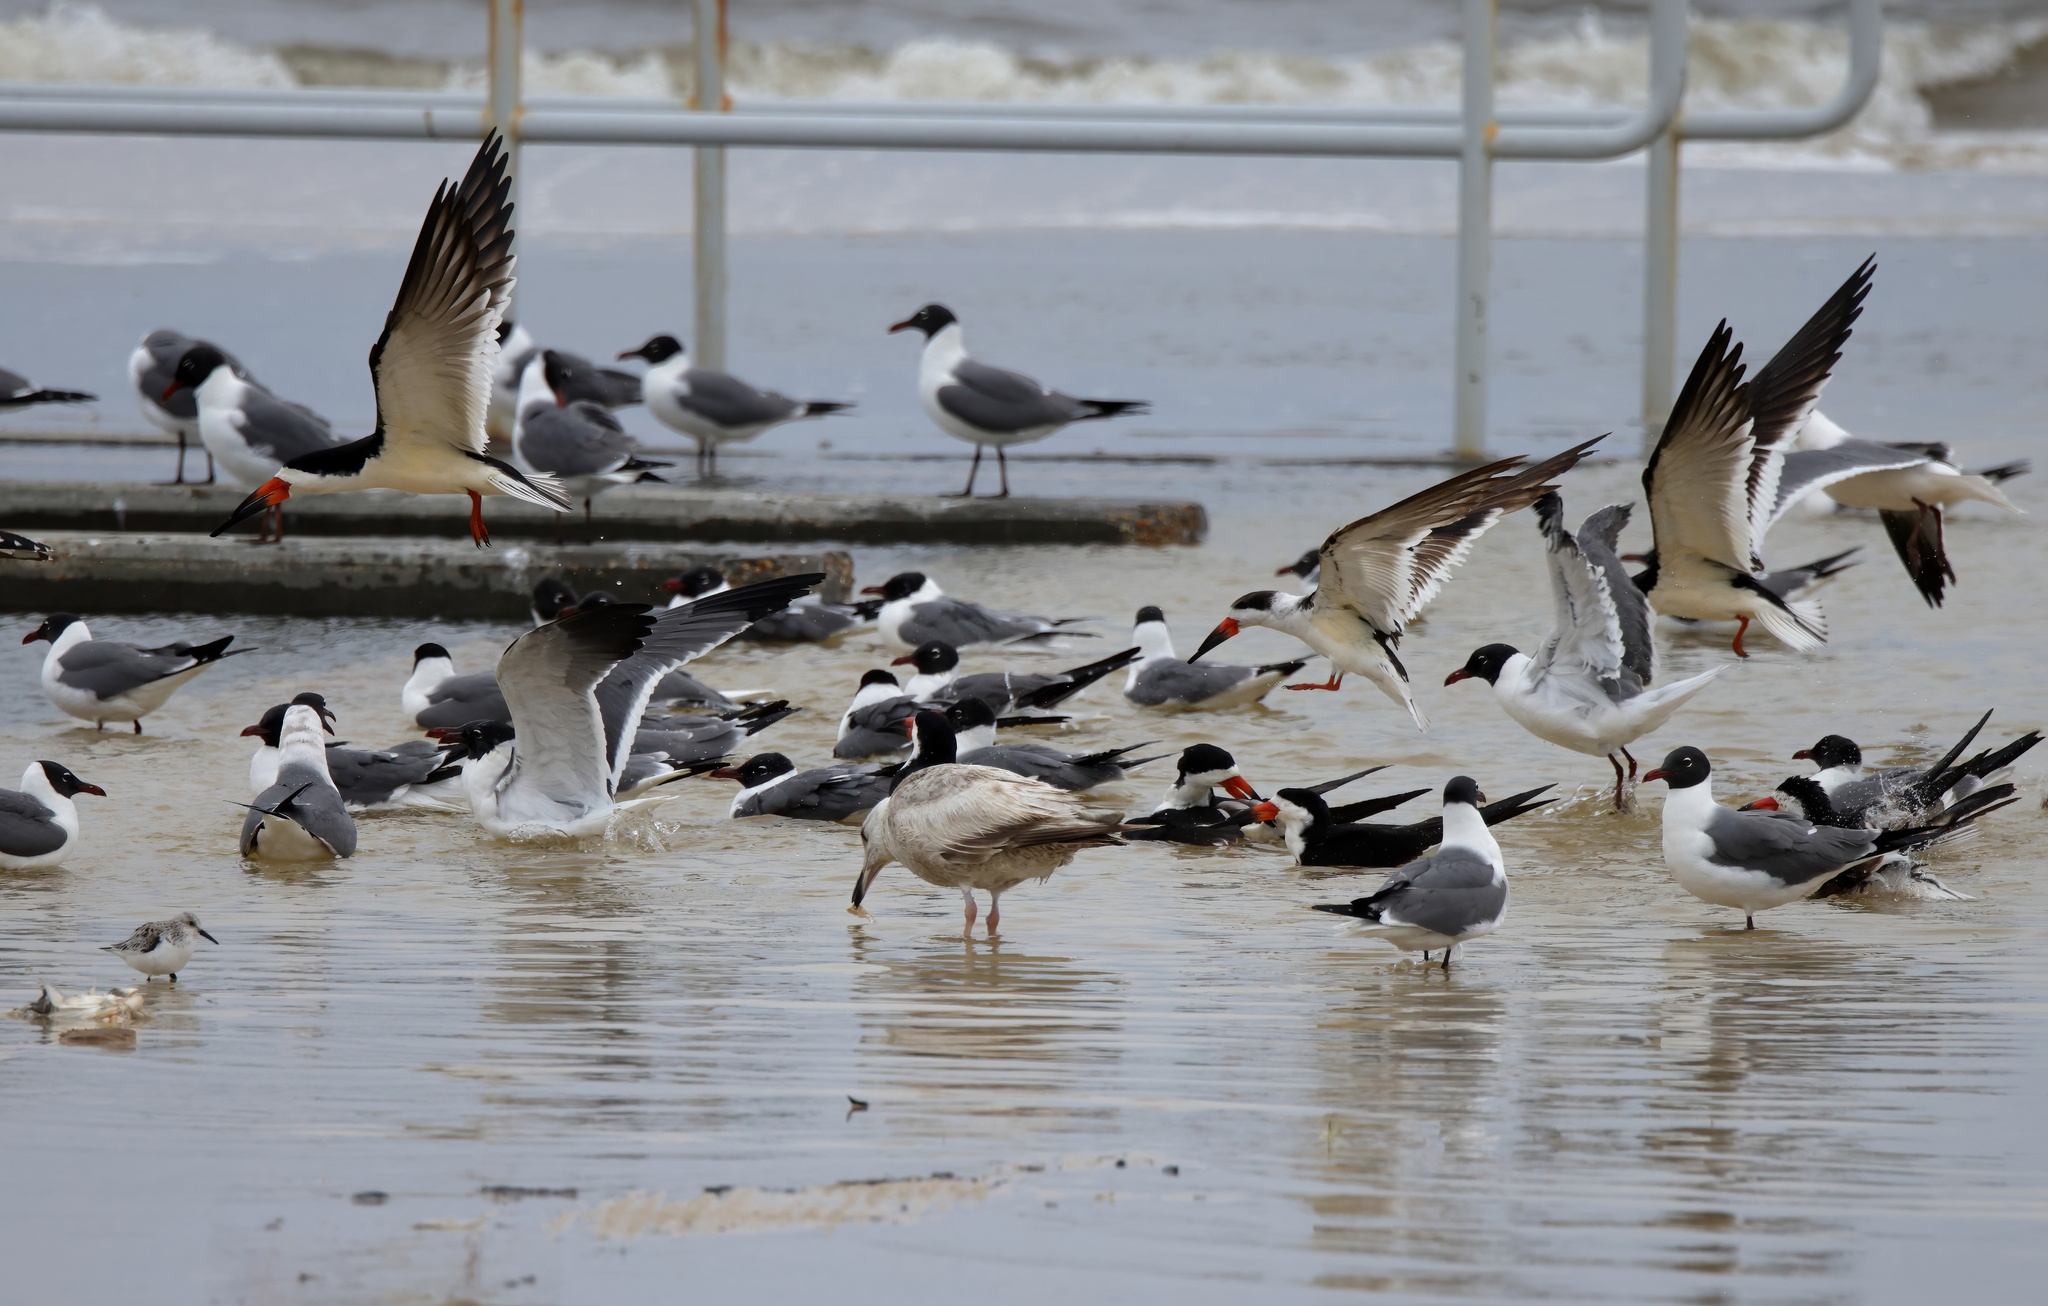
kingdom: Animalia
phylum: Chordata
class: Aves
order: Charadriiformes
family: Laridae
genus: Larus
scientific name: Larus argentatus
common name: Herring gull
